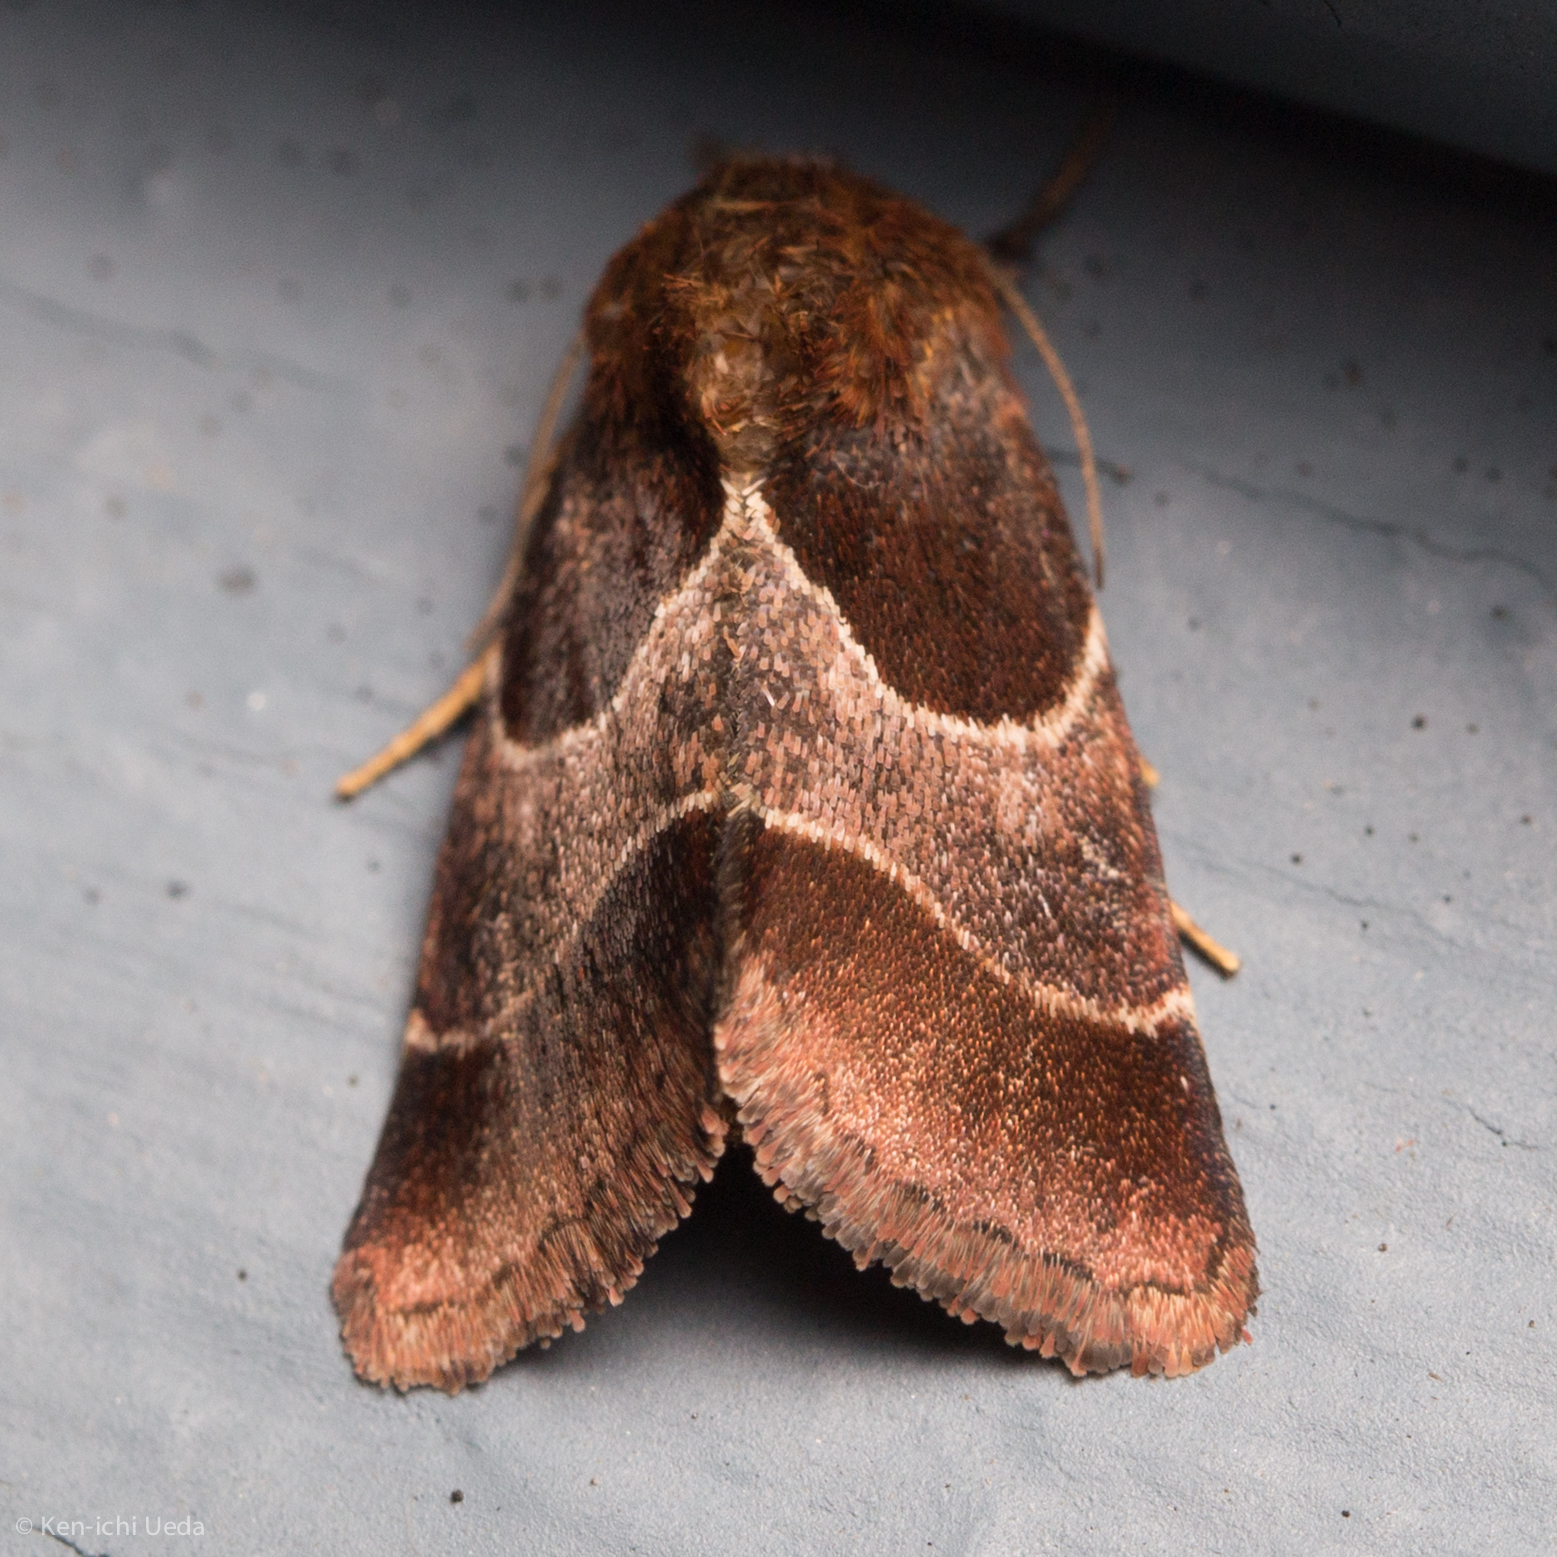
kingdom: Animalia
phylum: Arthropoda
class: Insecta
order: Lepidoptera
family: Noctuidae
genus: Schinia
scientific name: Schinia arcigera
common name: Arcigera flower moth
